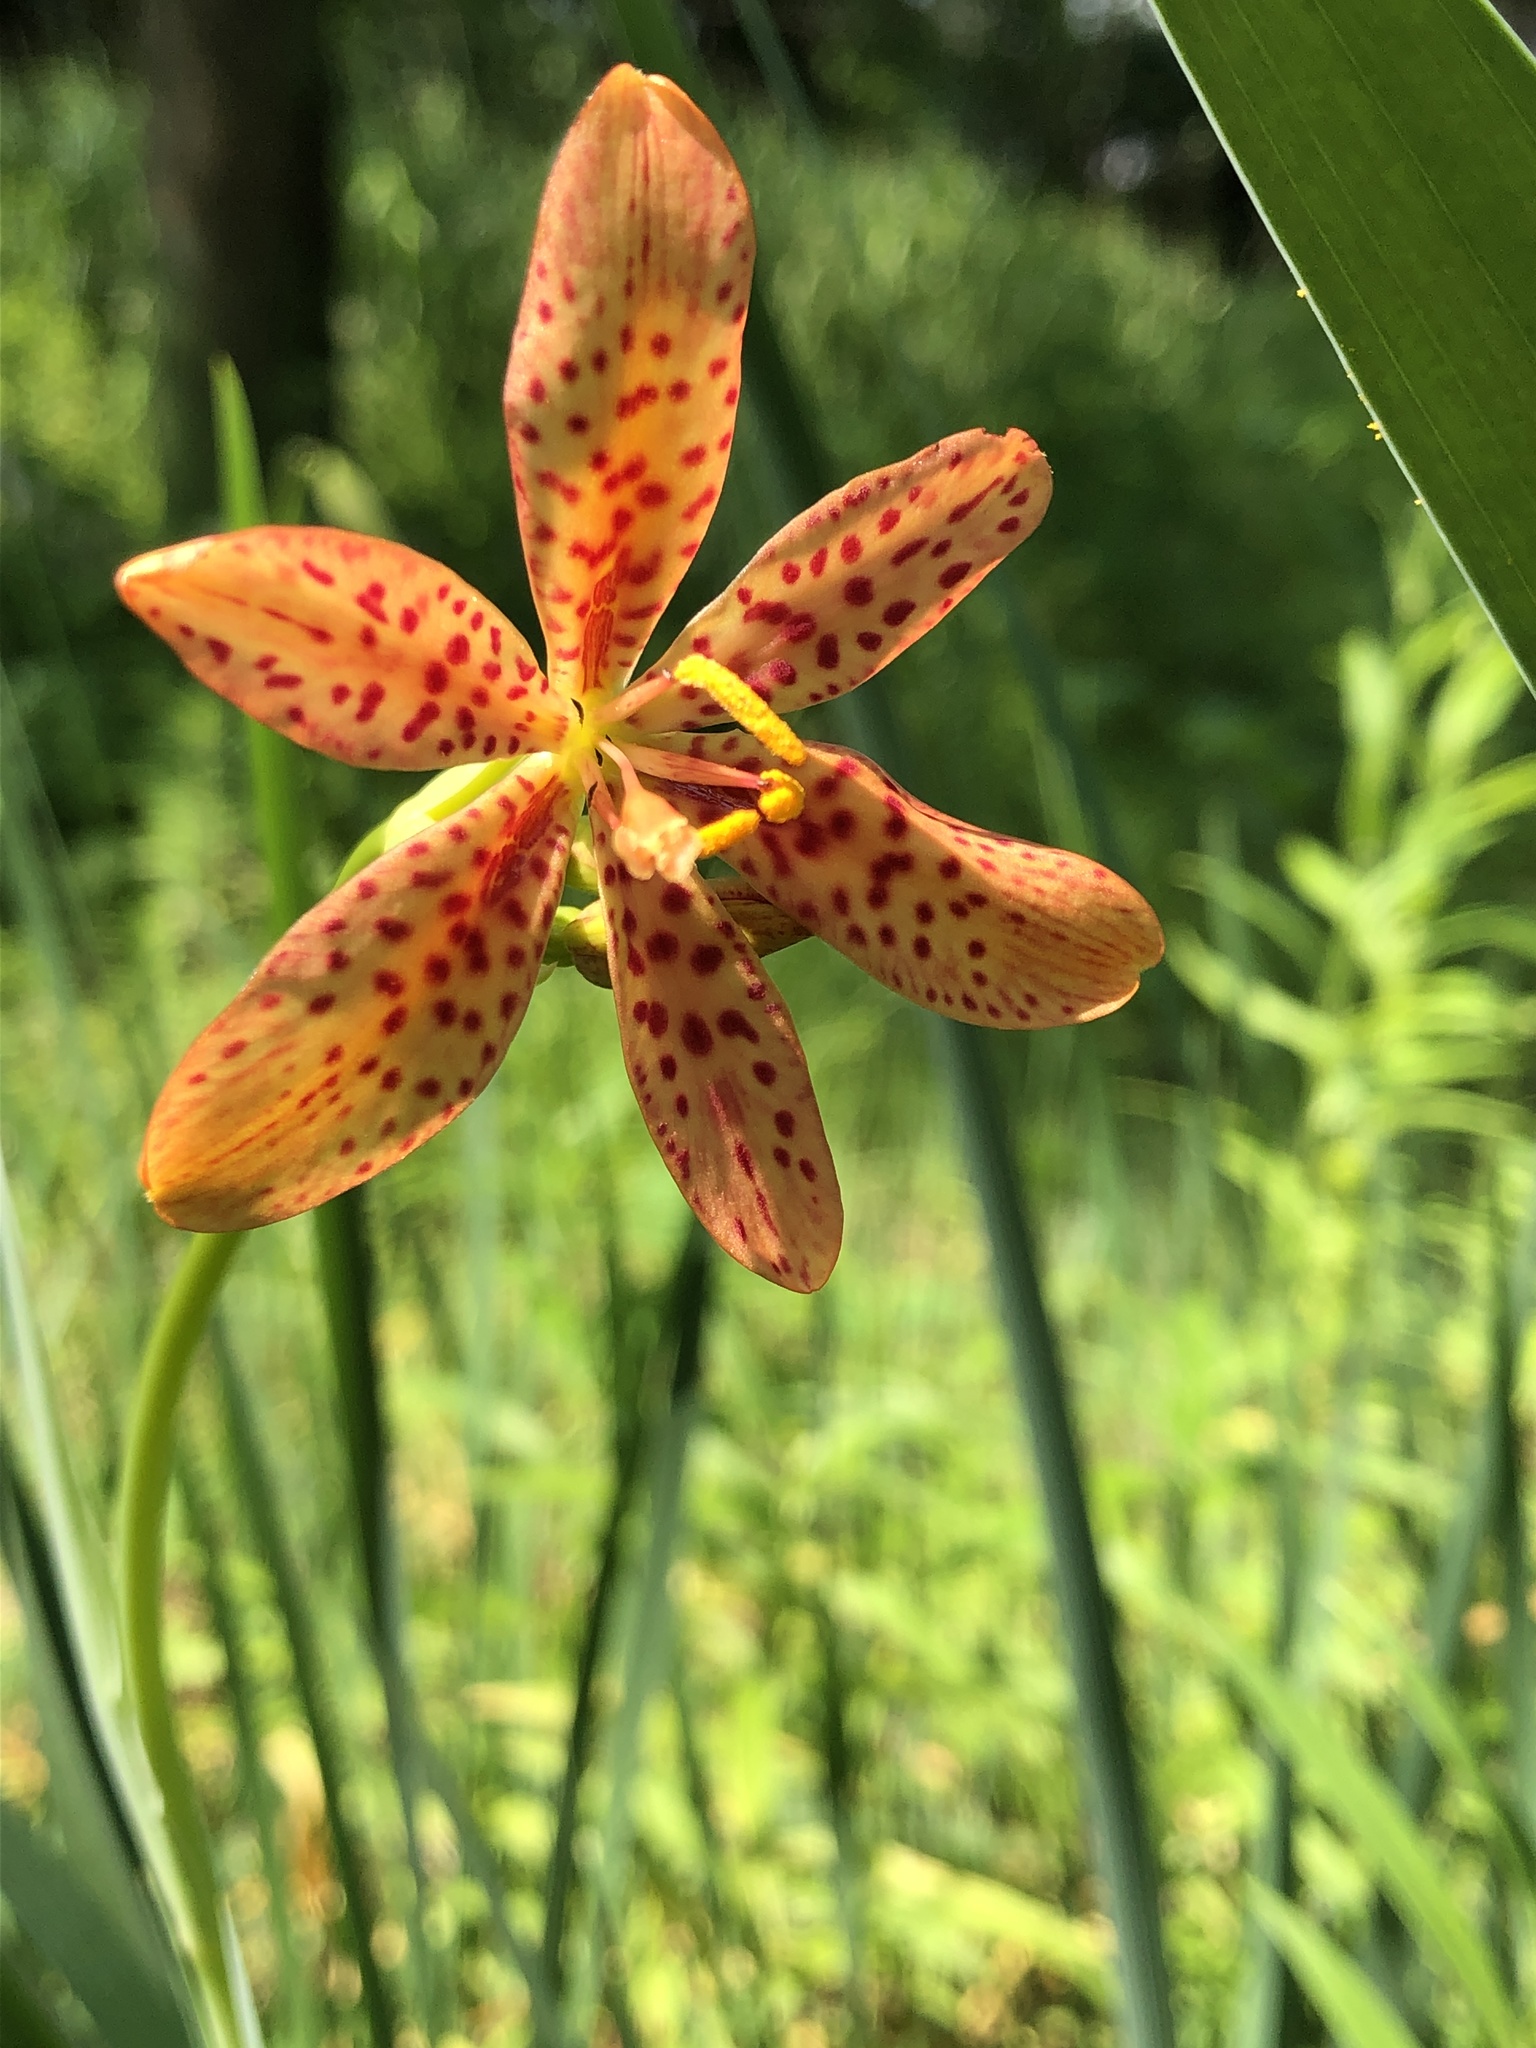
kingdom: Plantae
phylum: Tracheophyta
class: Liliopsida
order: Asparagales
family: Iridaceae
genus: Iris
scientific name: Iris domestica
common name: Belamcanda
